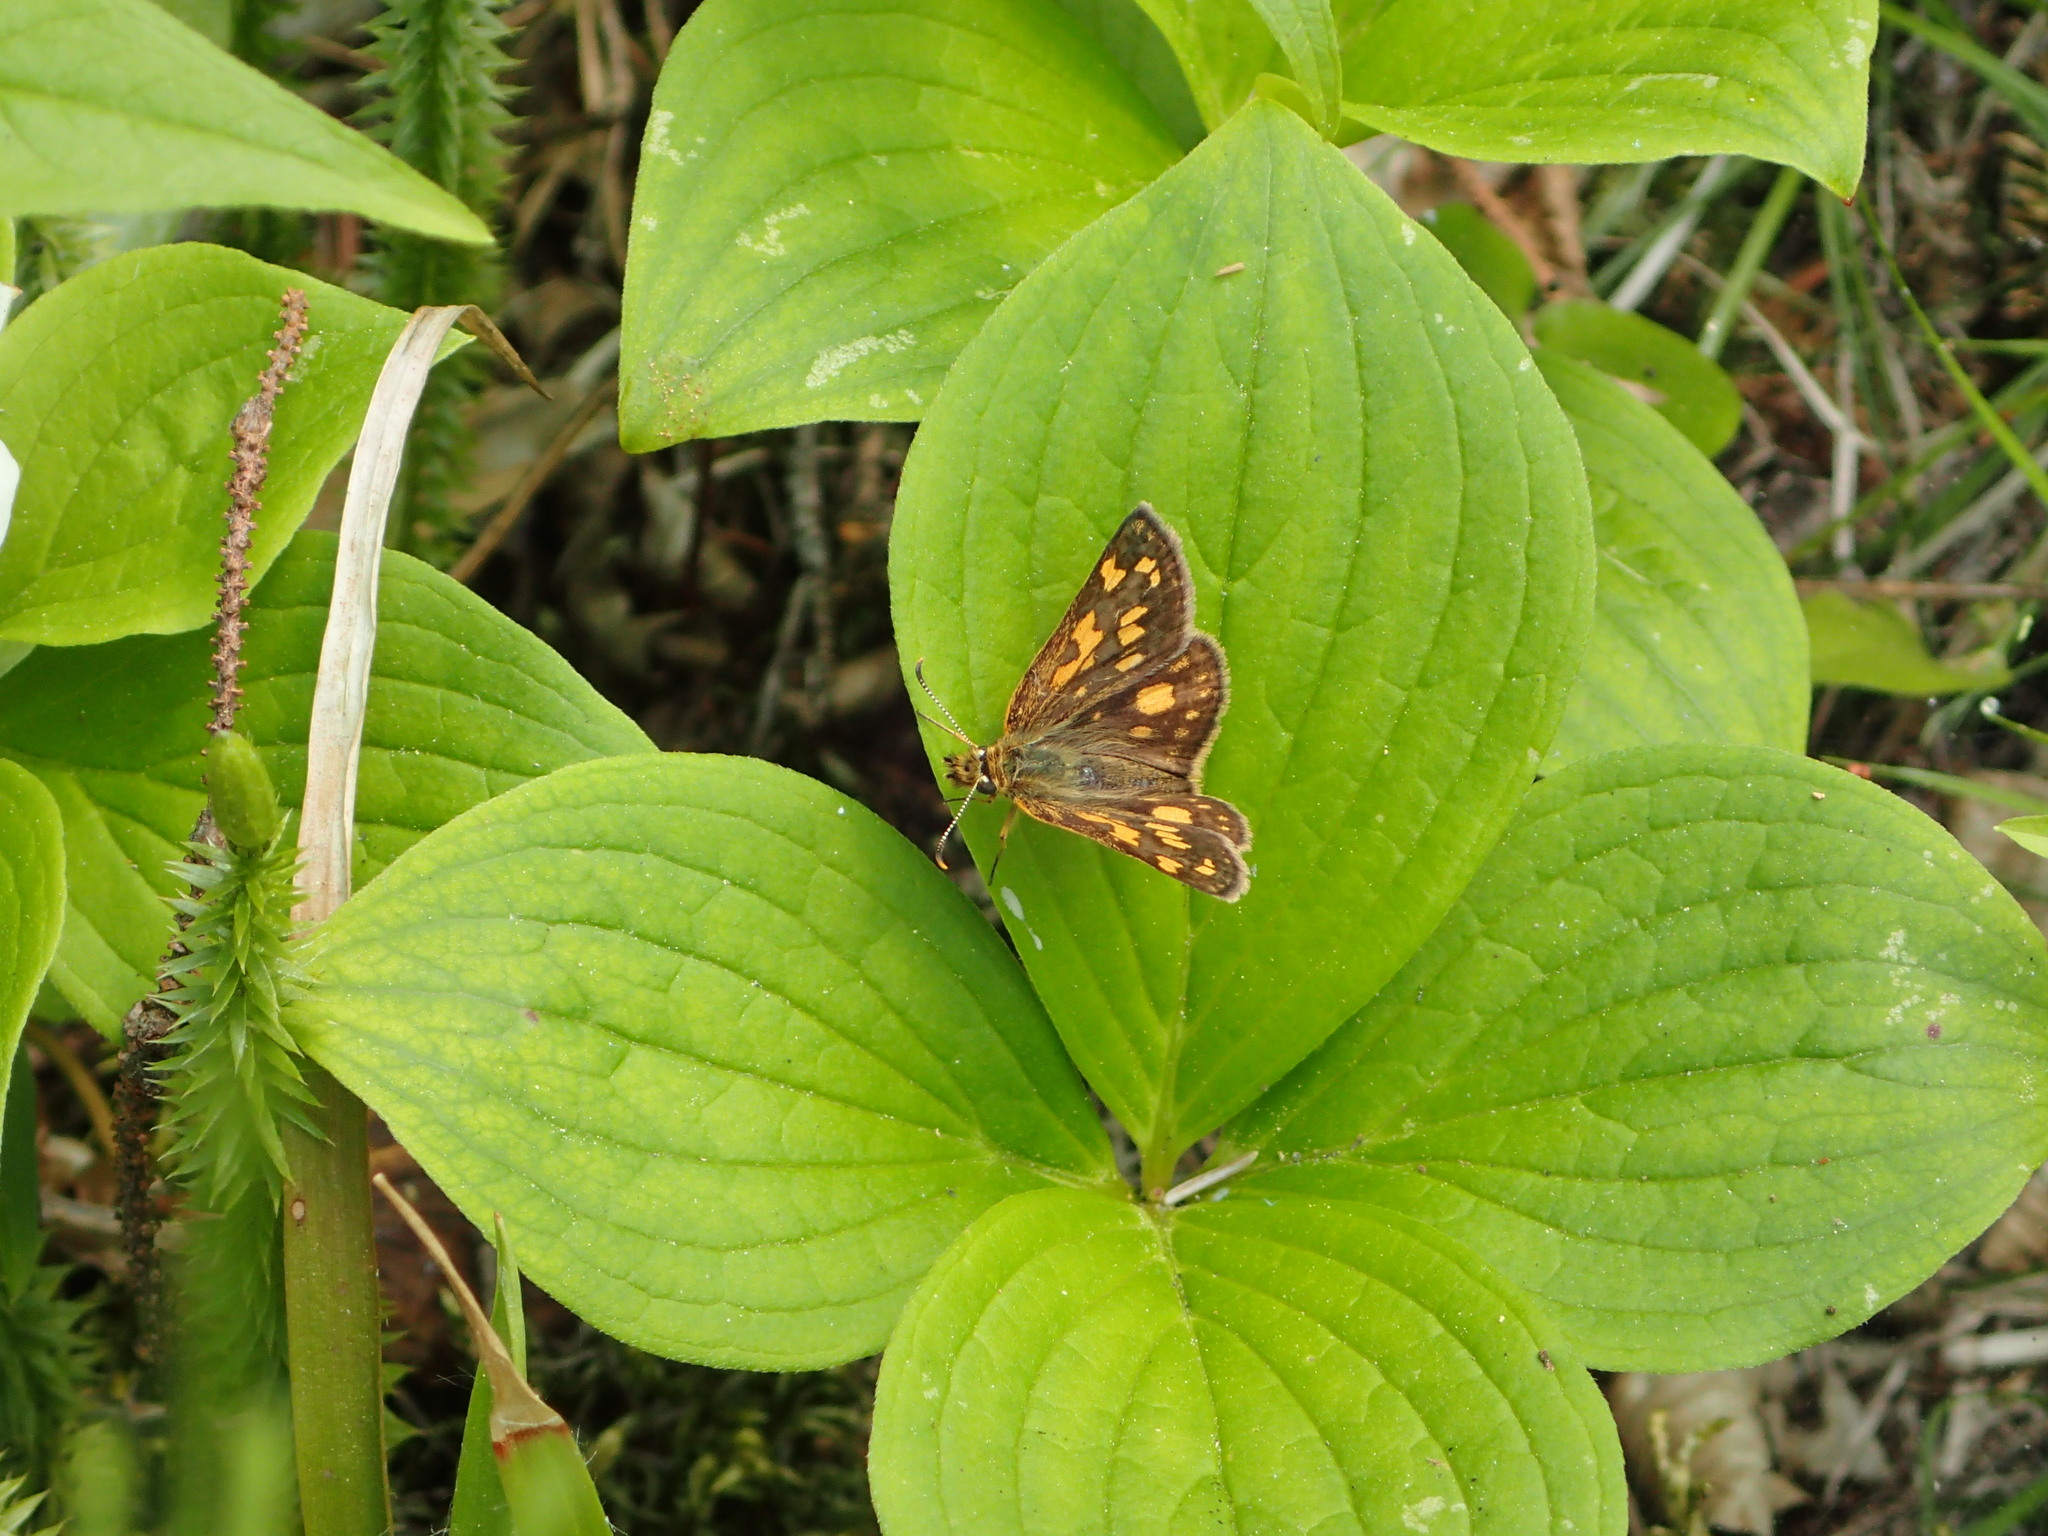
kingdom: Animalia
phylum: Arthropoda
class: Insecta
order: Lepidoptera
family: Hesperiidae
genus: Carterocephalus
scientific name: Carterocephalus mandan
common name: Arctic skipperling
